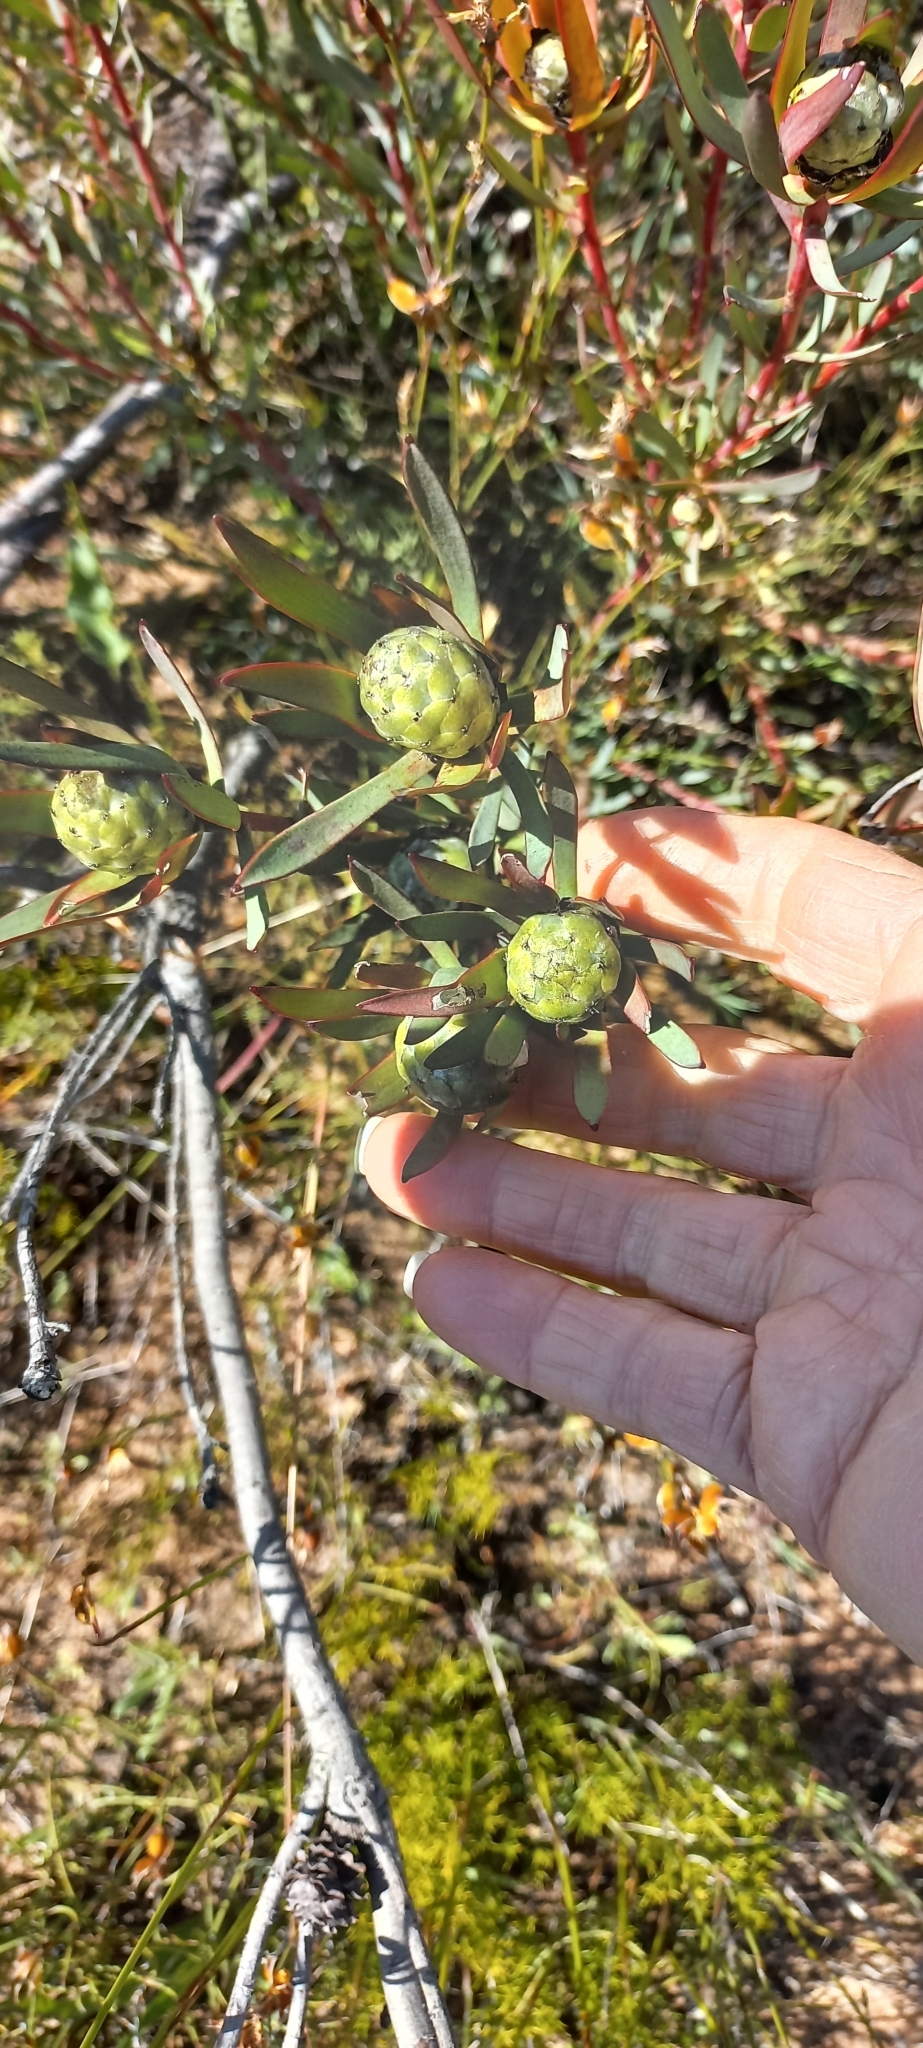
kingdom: Plantae
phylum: Tracheophyta
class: Magnoliopsida
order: Proteales
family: Proteaceae
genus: Leucadendron
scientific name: Leucadendron lanigerum
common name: Shale conebush
